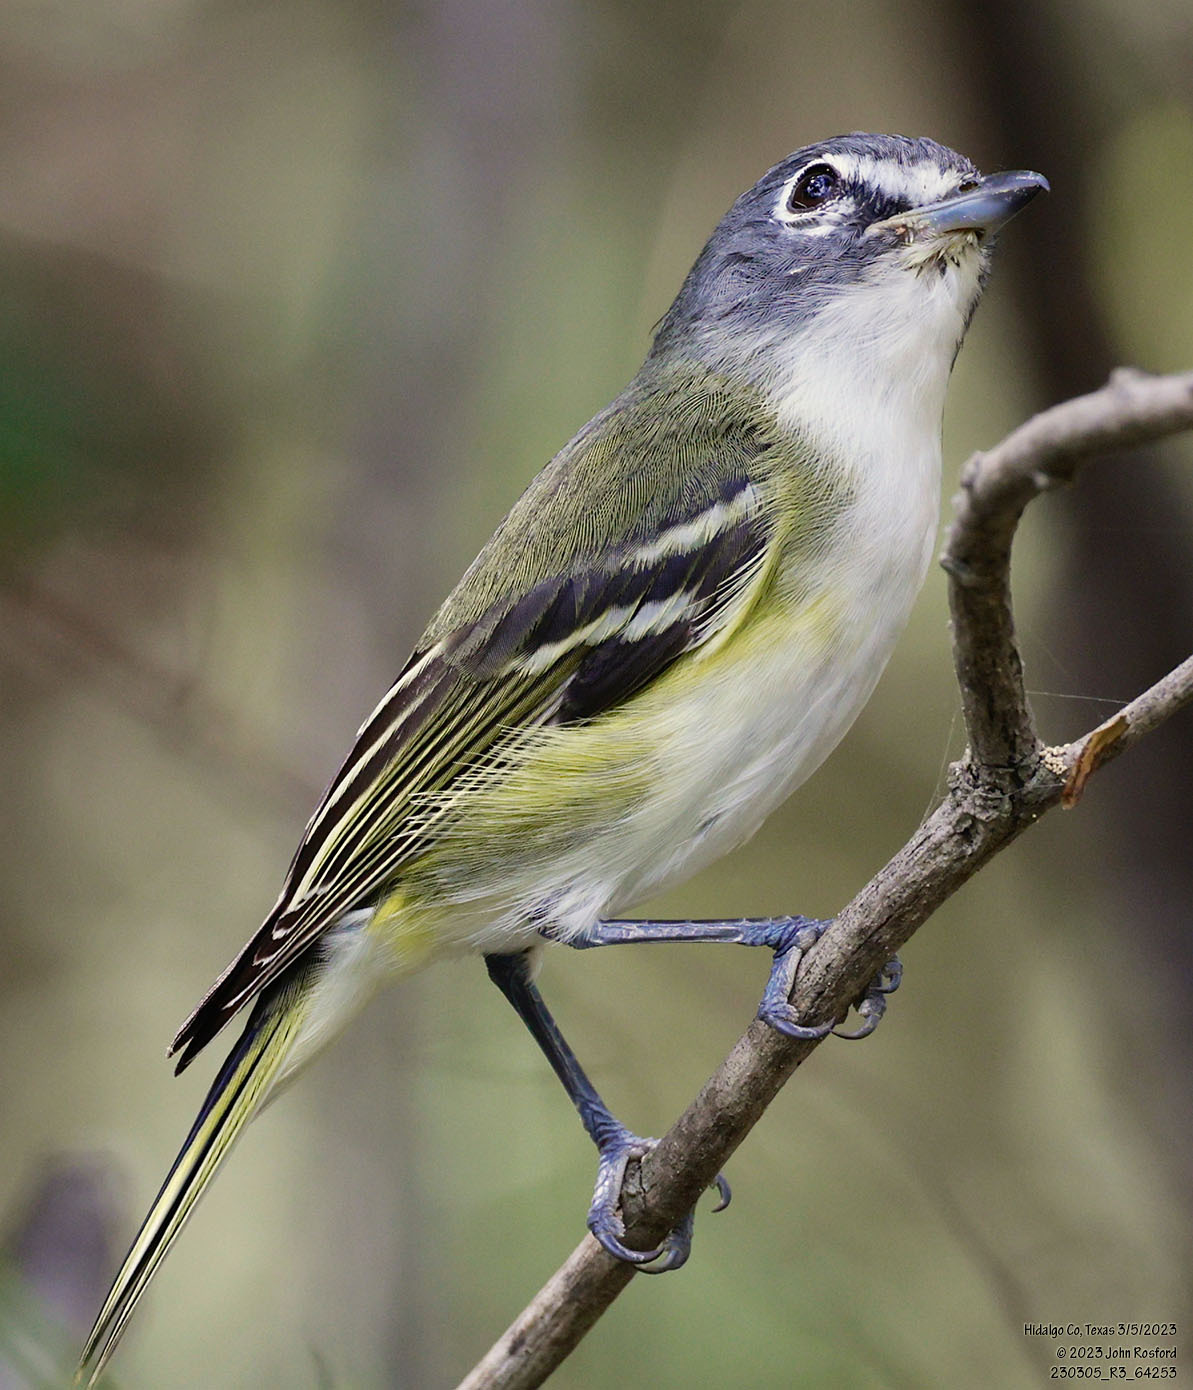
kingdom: Animalia
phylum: Chordata
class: Aves
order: Passeriformes
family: Vireonidae
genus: Vireo
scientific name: Vireo solitarius
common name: Blue-headed vireo
